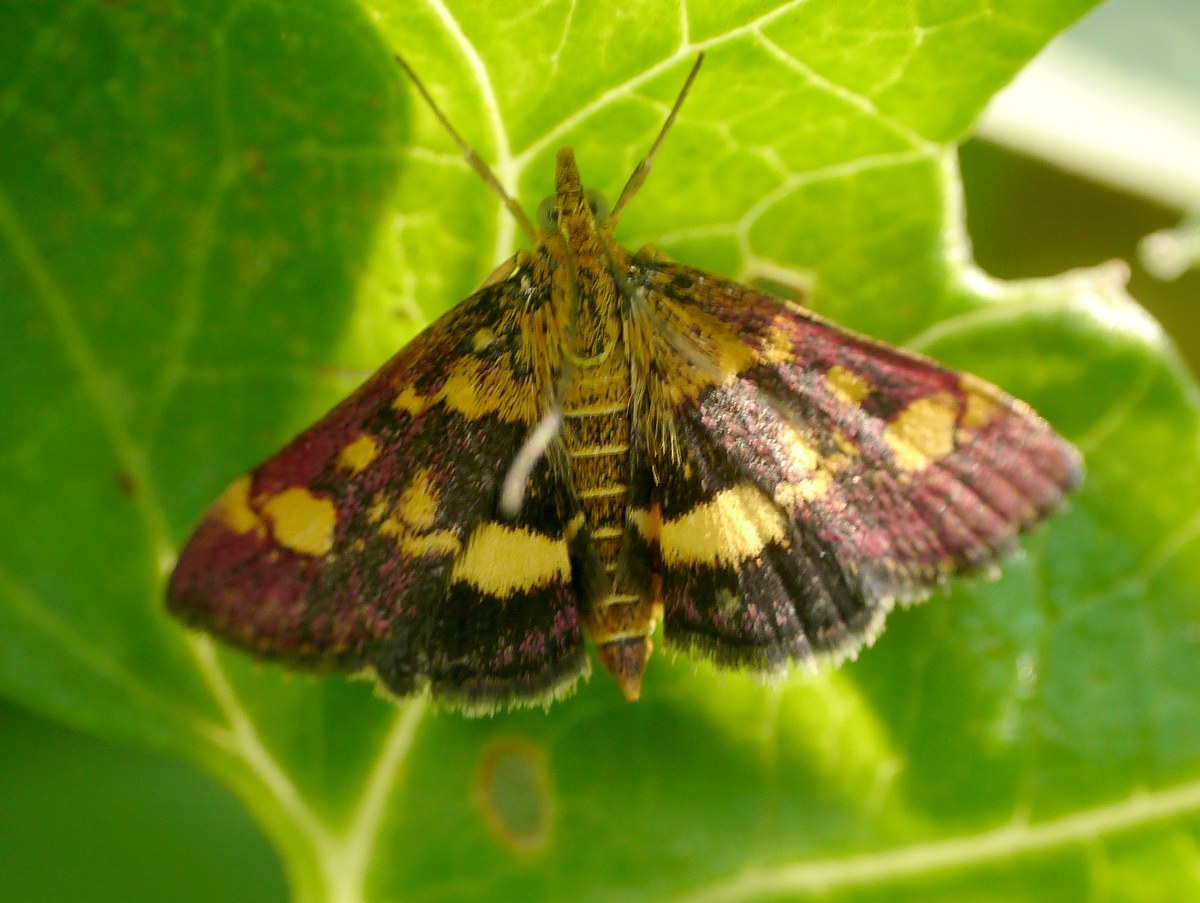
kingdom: Animalia
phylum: Arthropoda
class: Insecta
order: Lepidoptera
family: Crambidae
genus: Pyrausta
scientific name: Pyrausta aurata
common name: Small purple & gold
